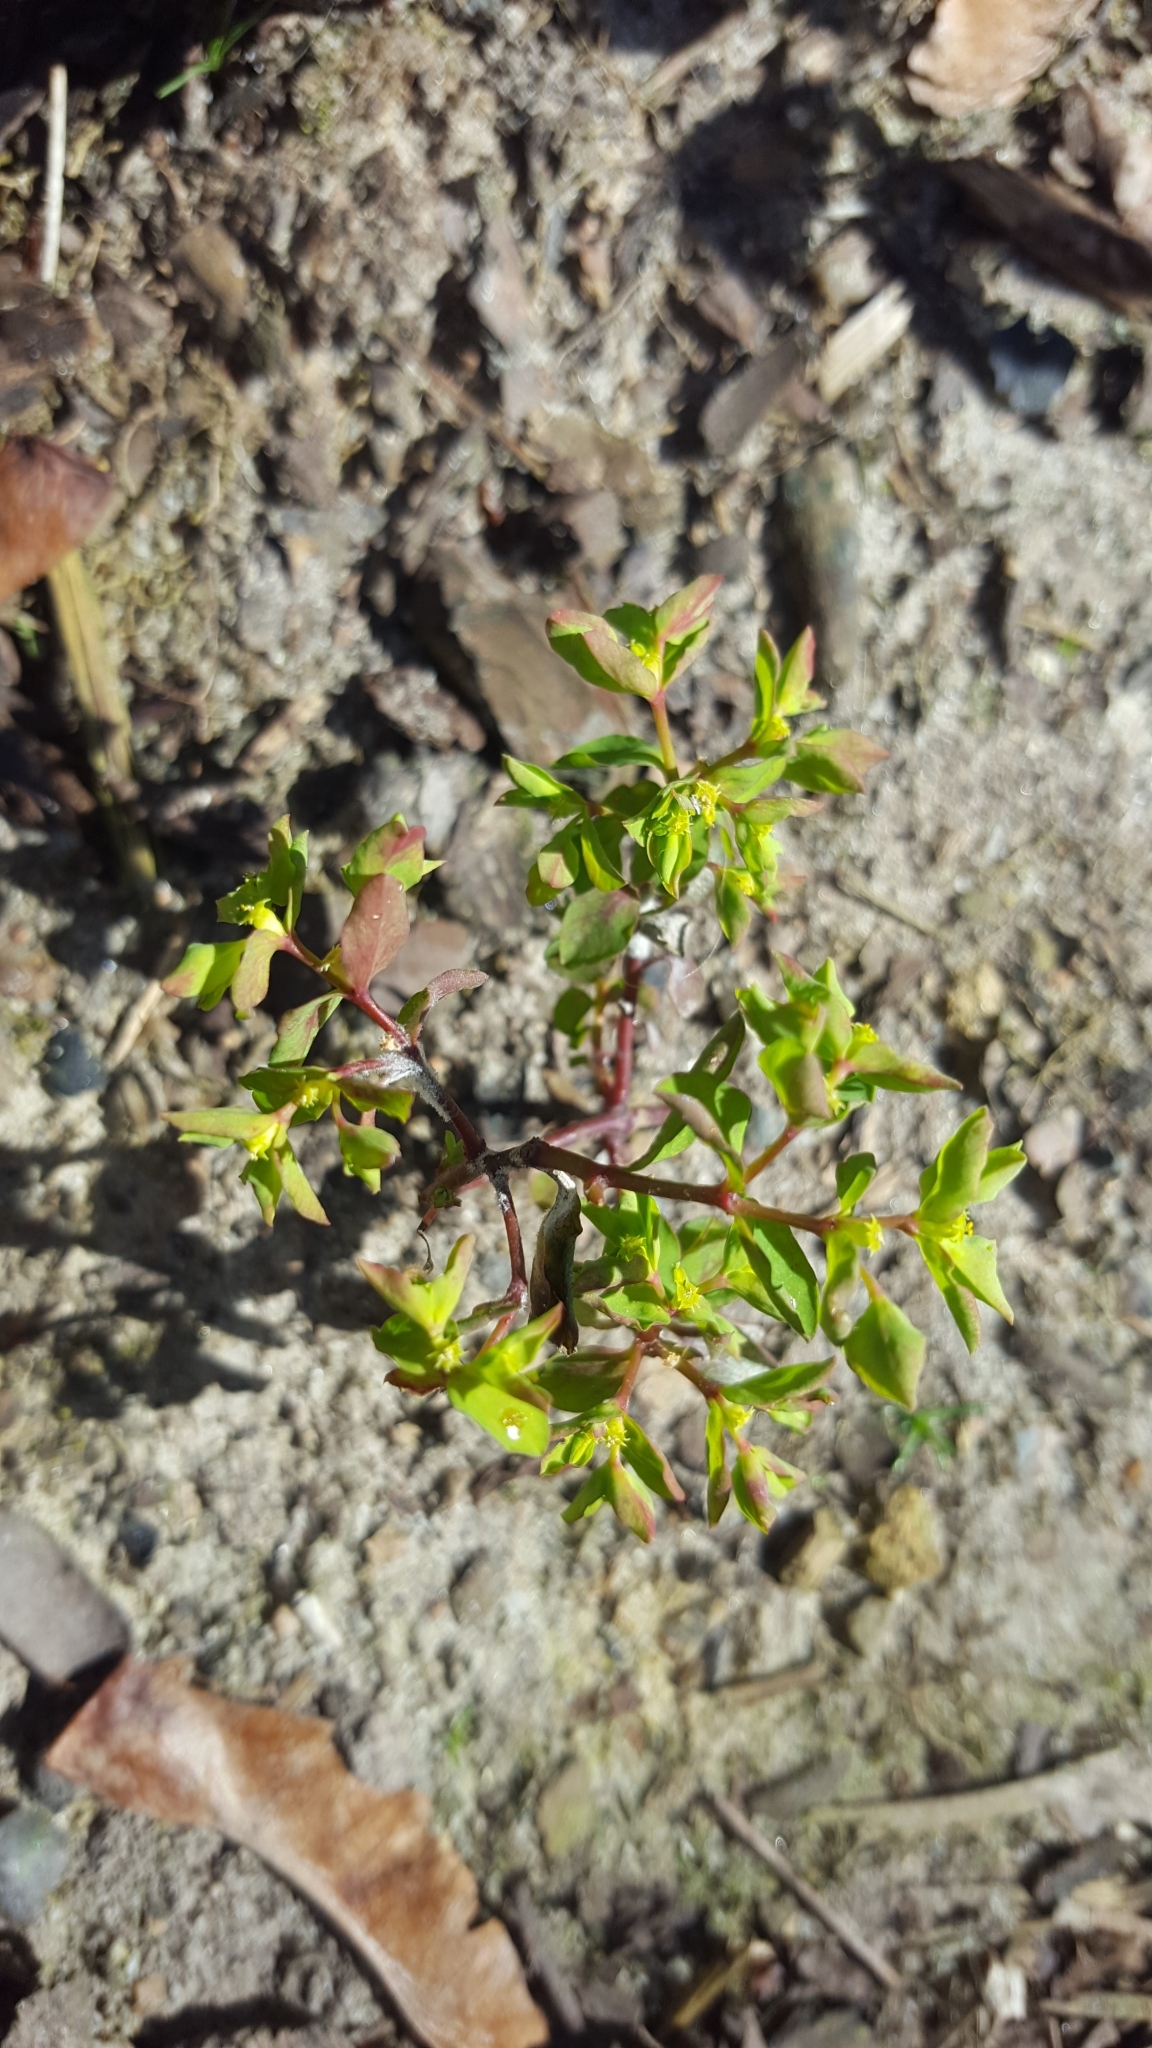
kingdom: Plantae
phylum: Tracheophyta
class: Magnoliopsida
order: Malpighiales
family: Euphorbiaceae
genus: Euphorbia
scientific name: Euphorbia peplus
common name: Petty spurge
